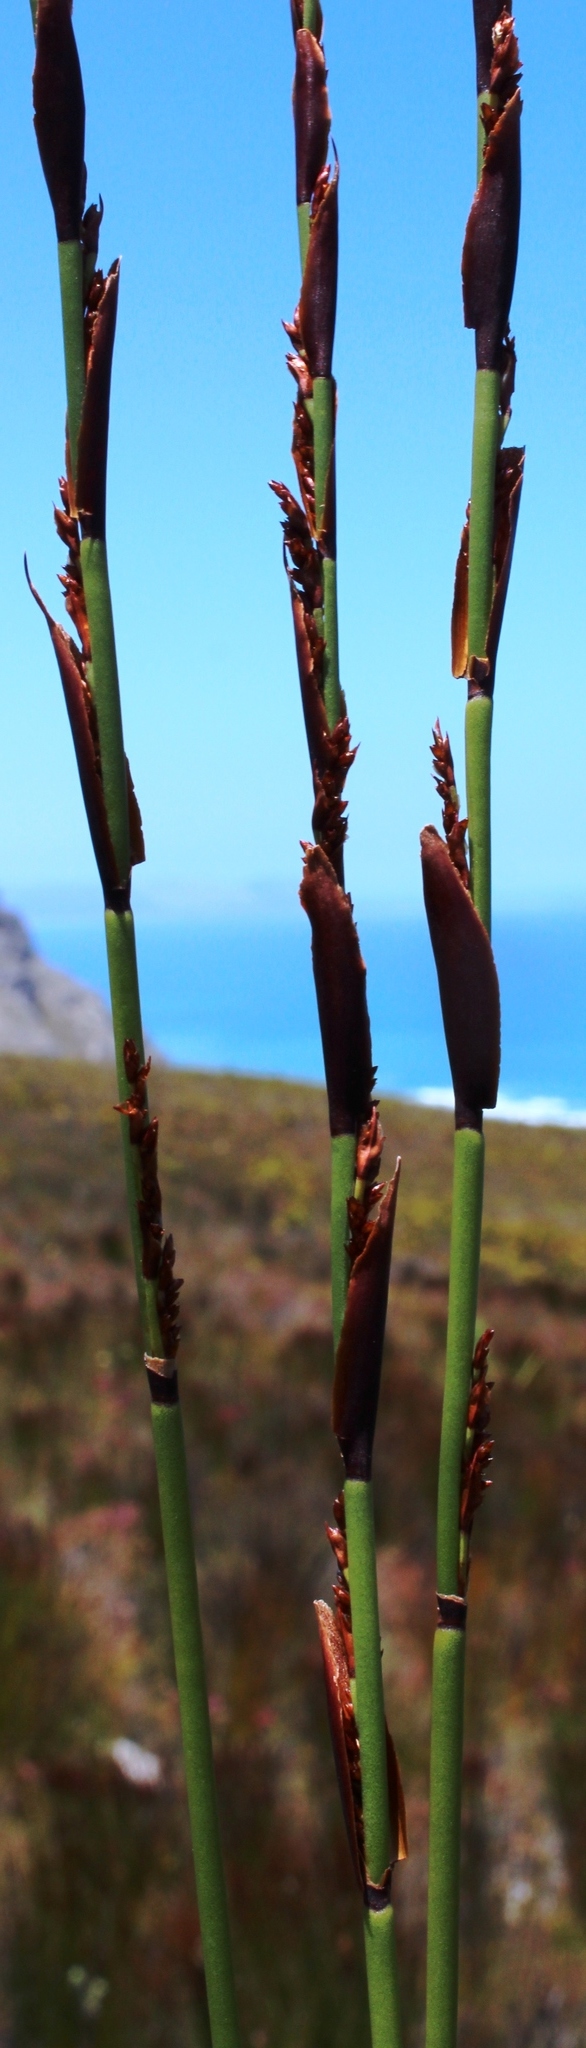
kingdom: Plantae
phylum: Tracheophyta
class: Liliopsida
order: Poales
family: Restionaceae
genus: Elegia
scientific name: Elegia hookeriana
